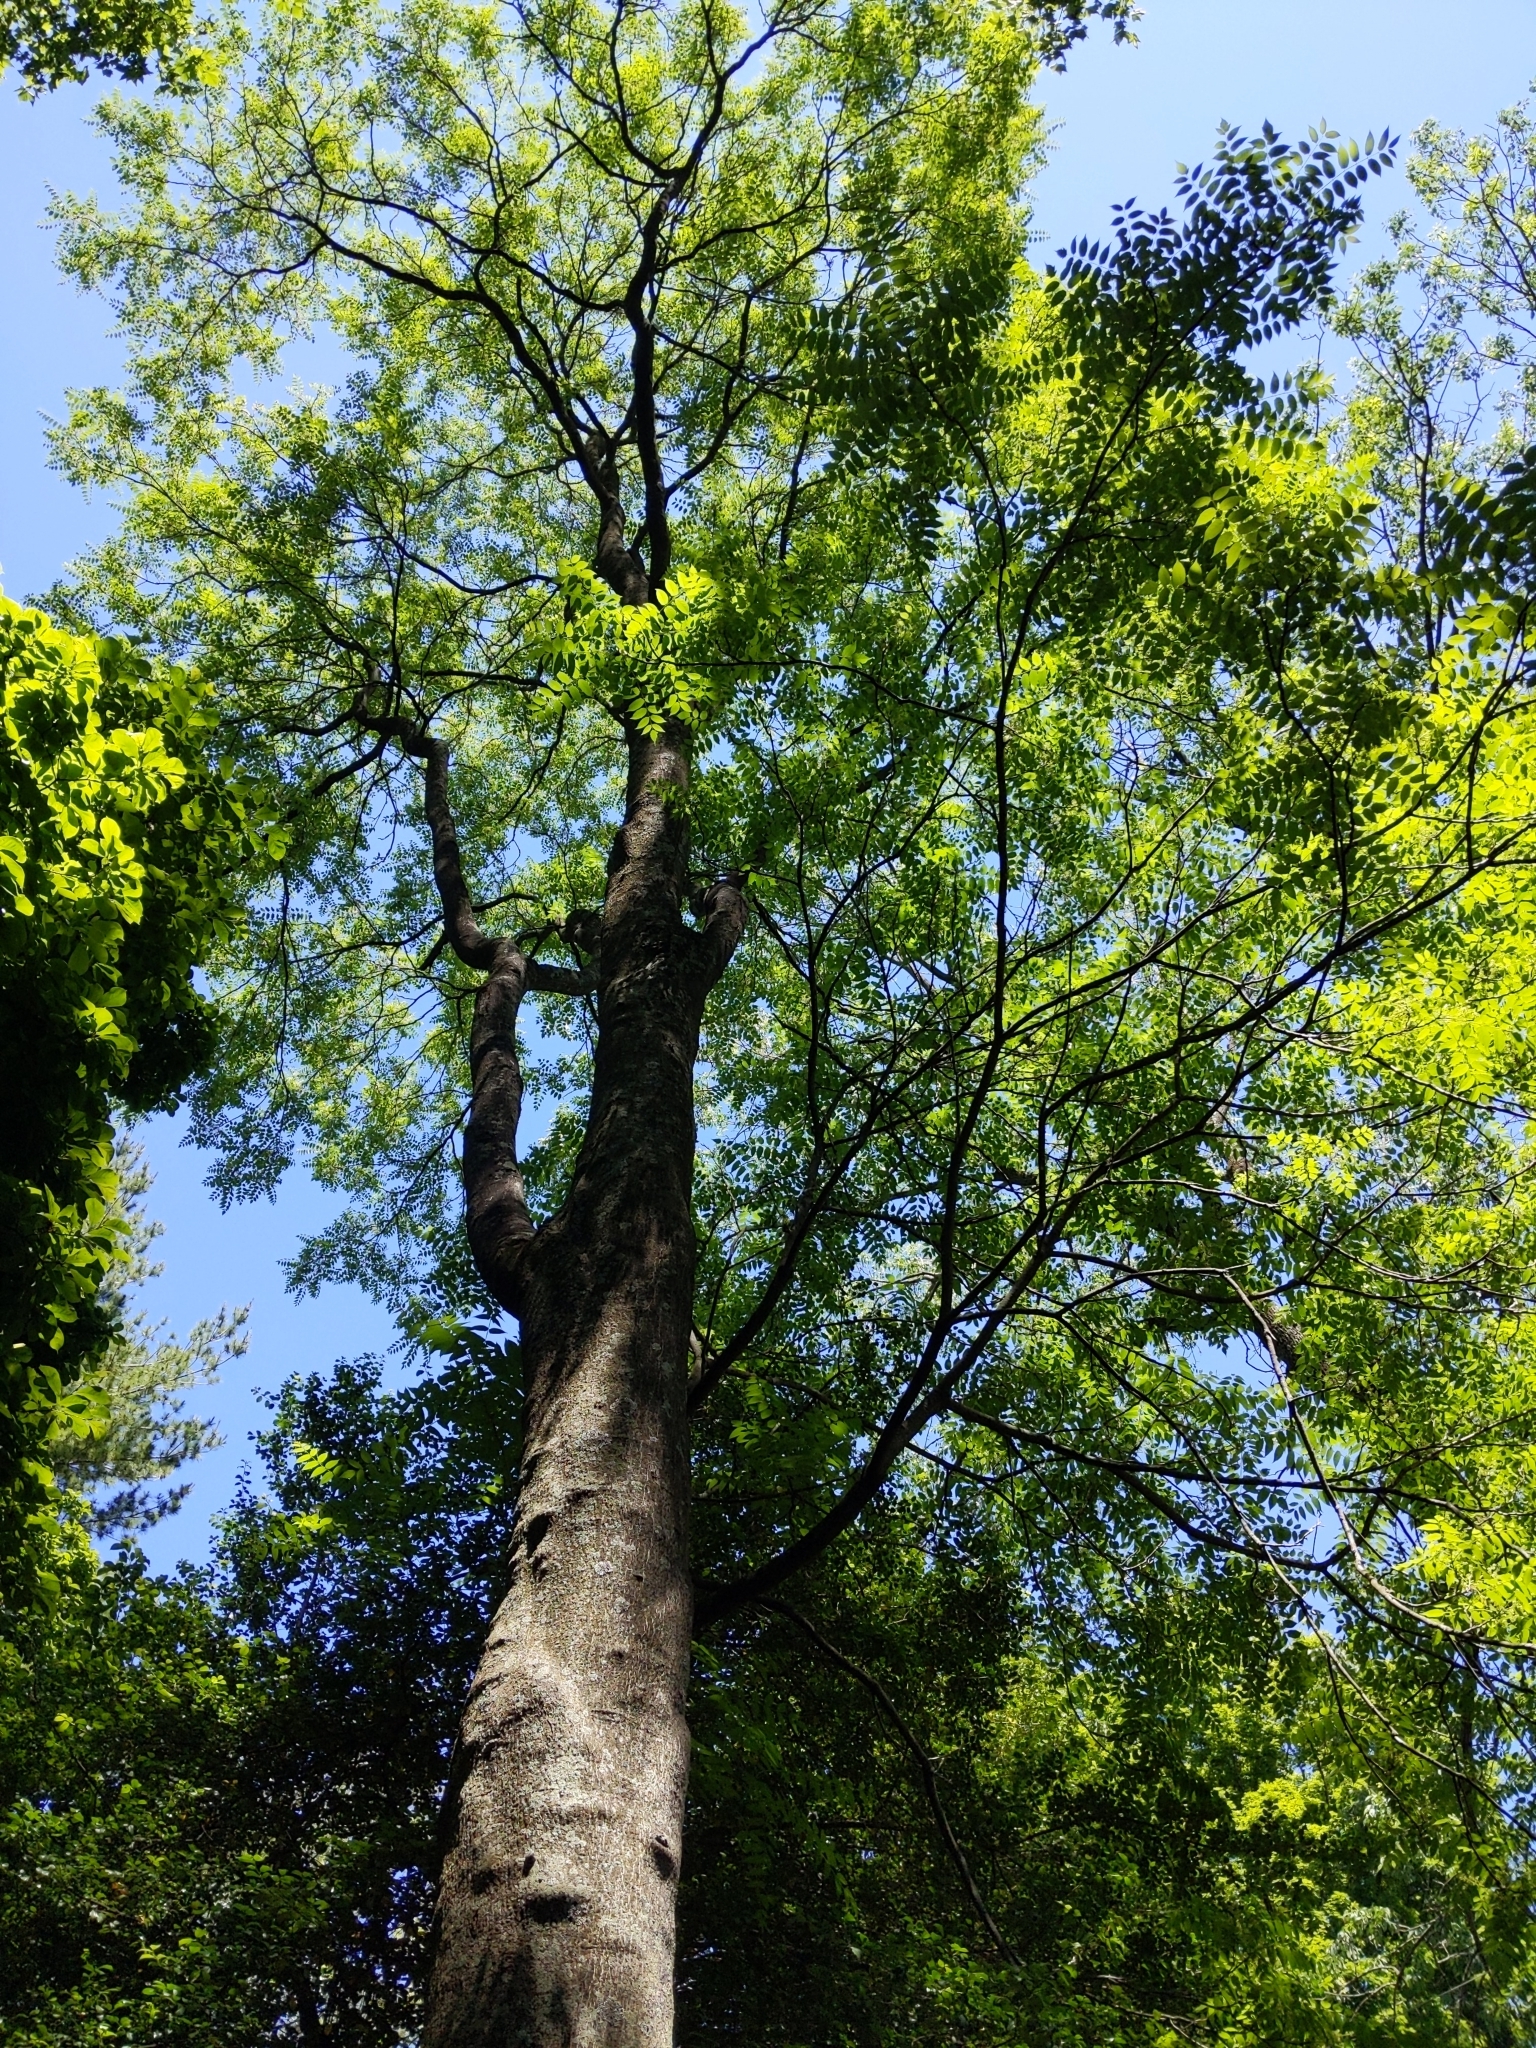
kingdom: Plantae
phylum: Tracheophyta
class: Magnoliopsida
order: Sapindales
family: Simaroubaceae
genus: Ailanthus
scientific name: Ailanthus altissima
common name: Tree-of-heaven
